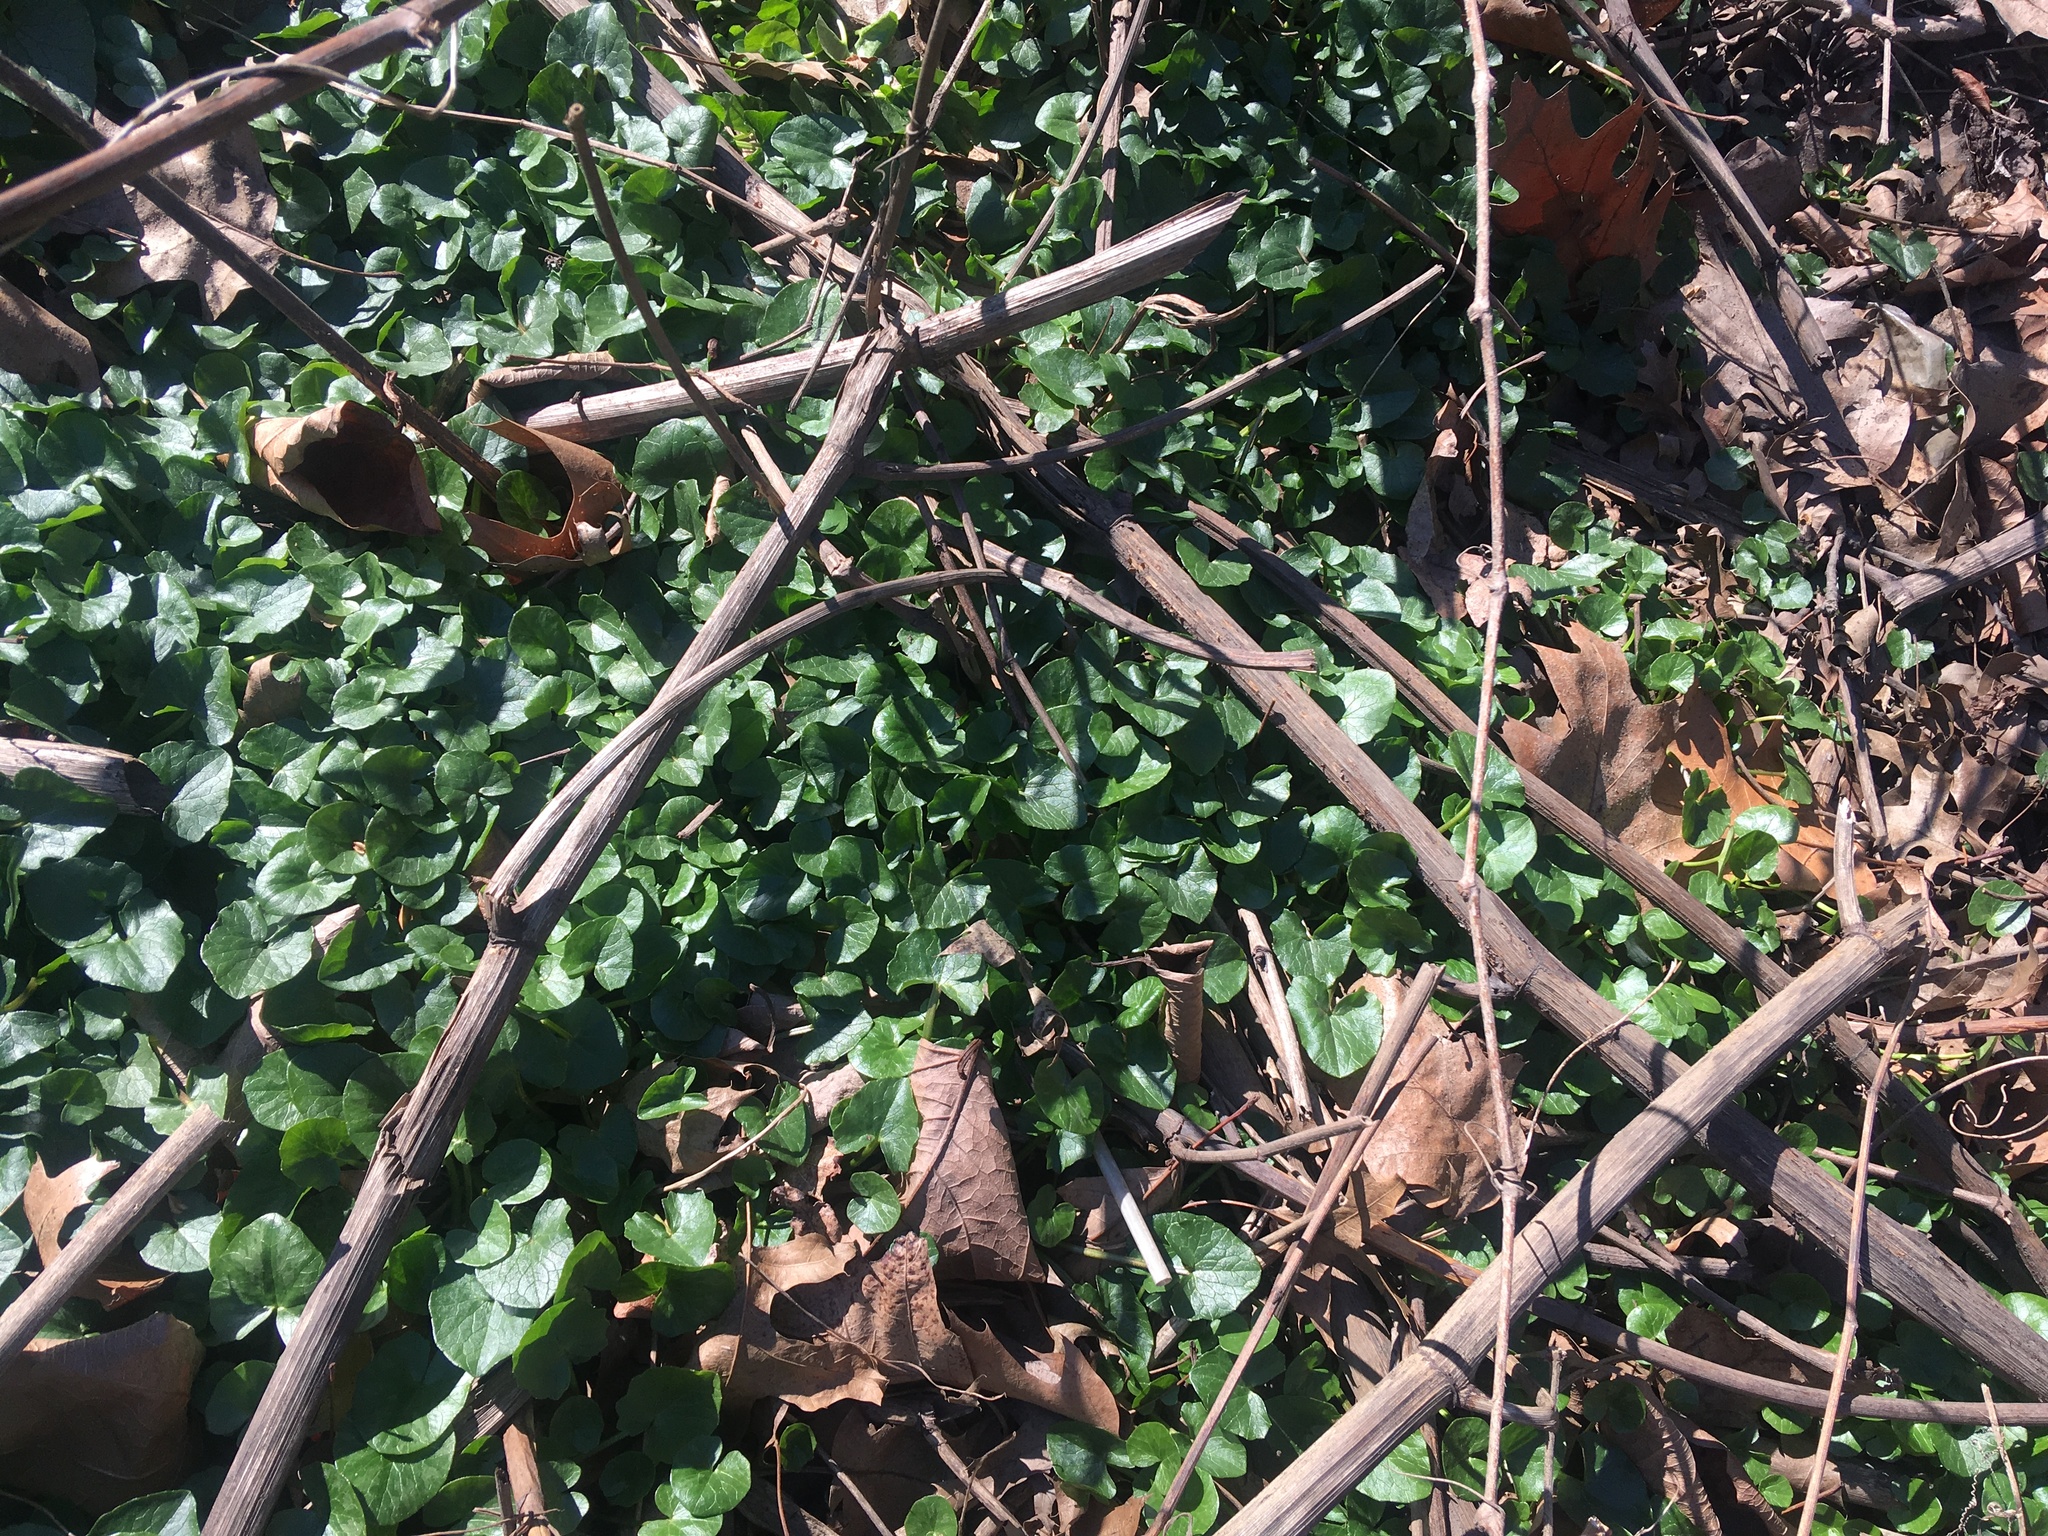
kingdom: Plantae
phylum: Tracheophyta
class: Magnoliopsida
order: Ranunculales
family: Ranunculaceae
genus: Ficaria
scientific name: Ficaria verna
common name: Lesser celandine
